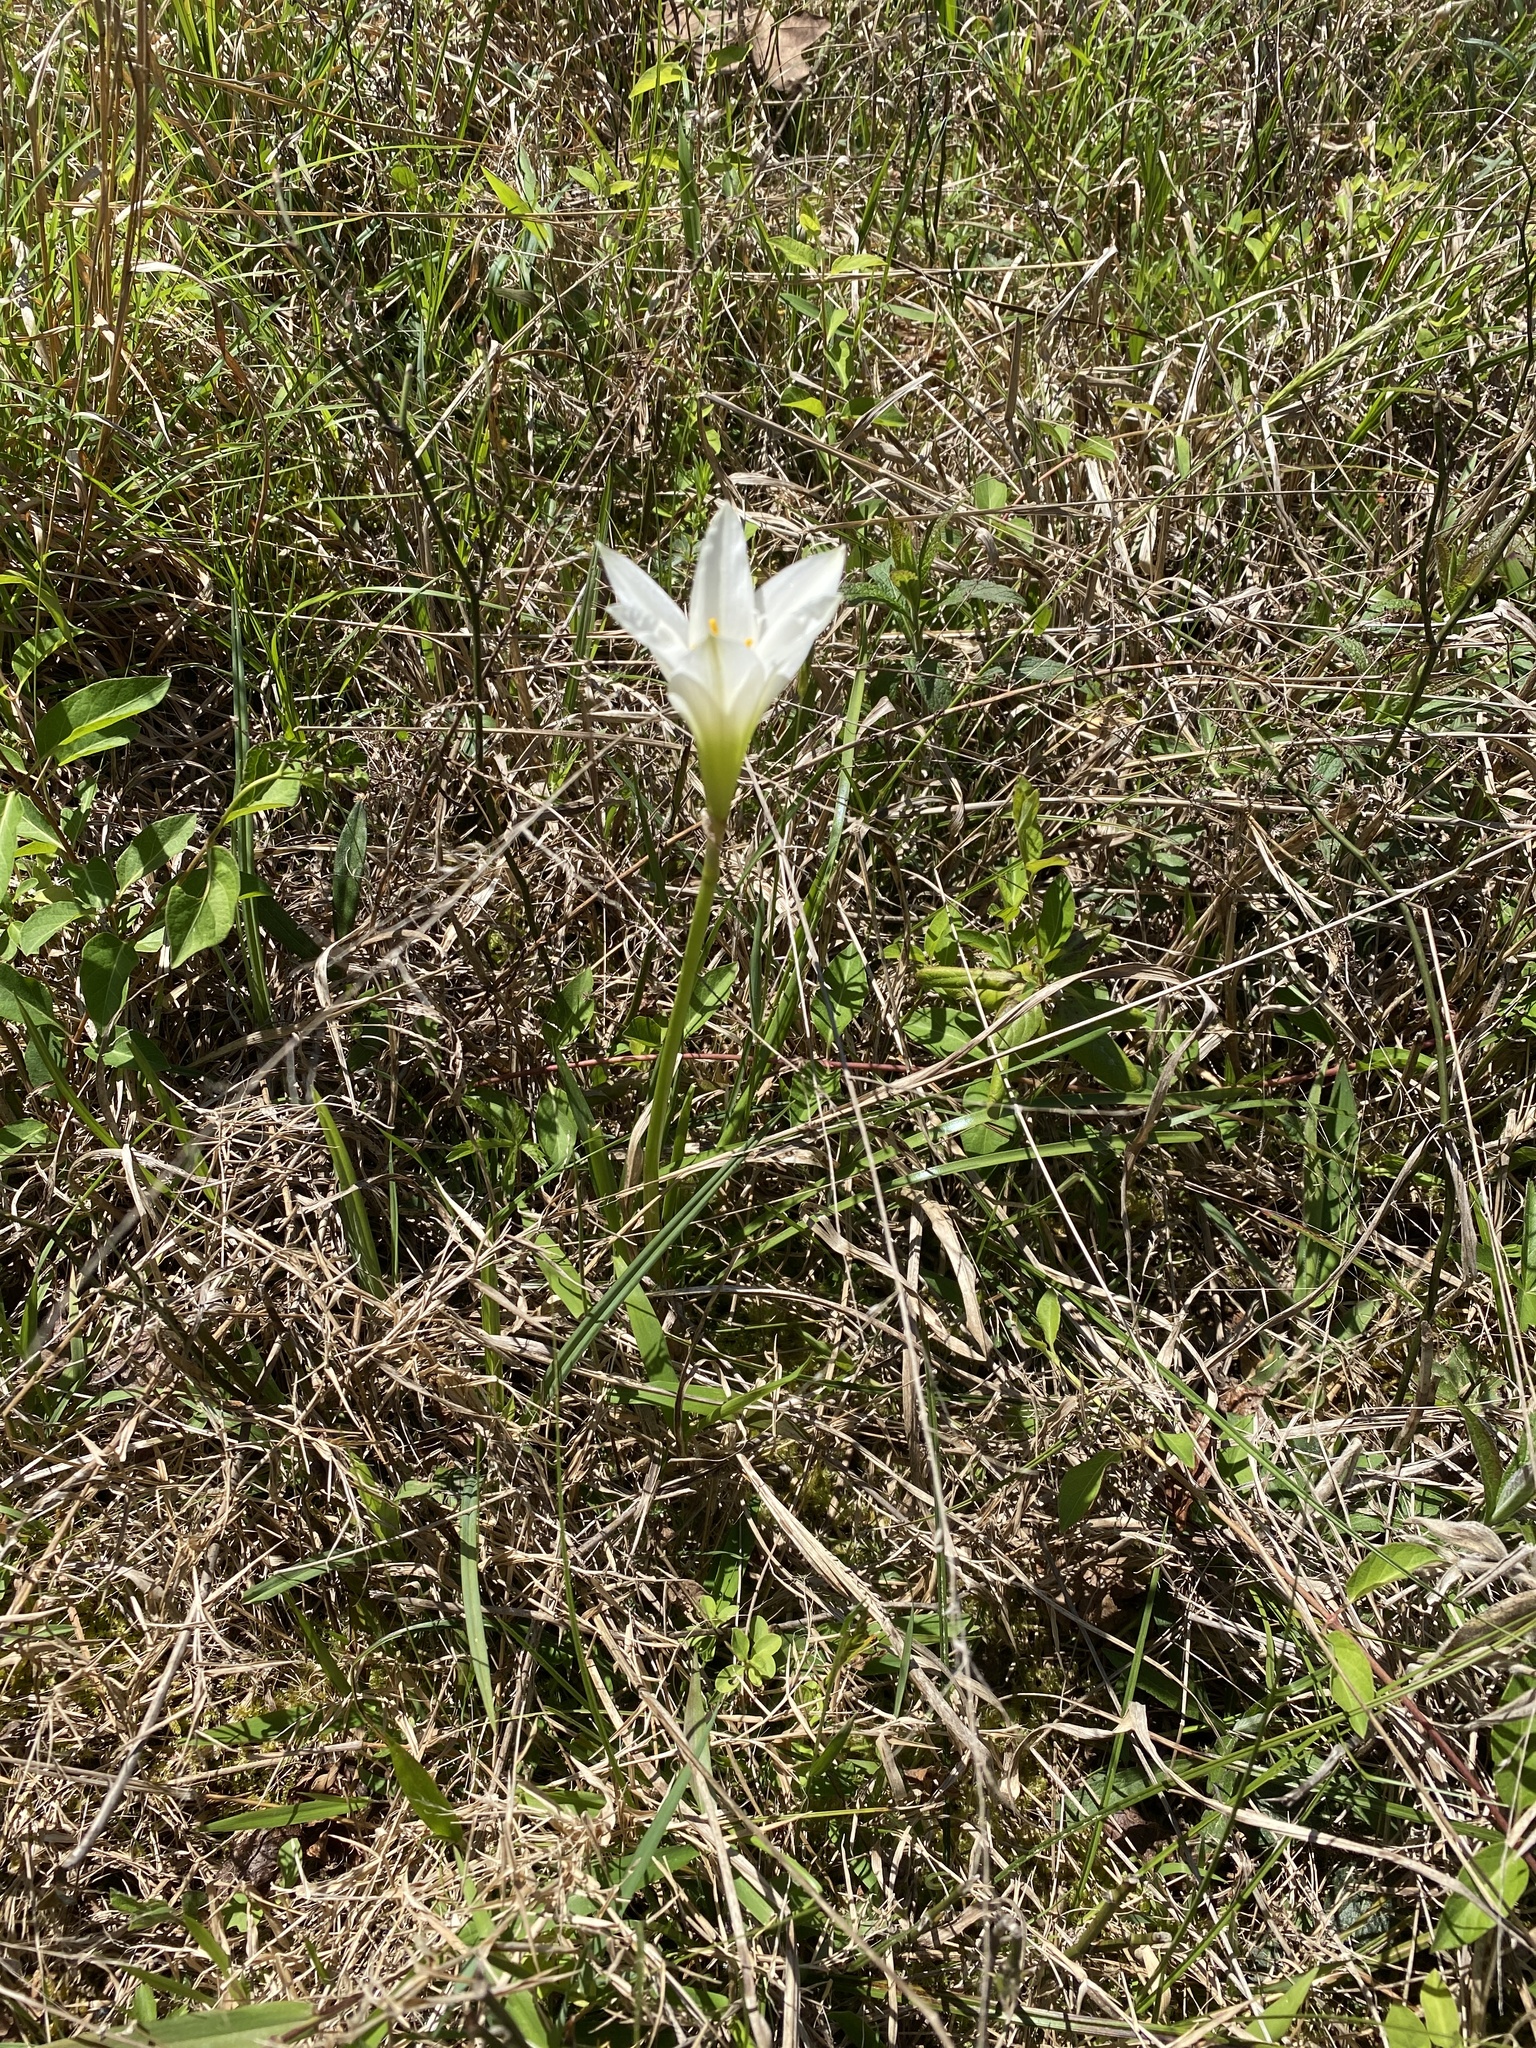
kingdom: Plantae
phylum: Tracheophyta
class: Liliopsida
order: Asparagales
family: Amaryllidaceae
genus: Zephyranthes
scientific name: Zephyranthes atamasco
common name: Atamasco lily
